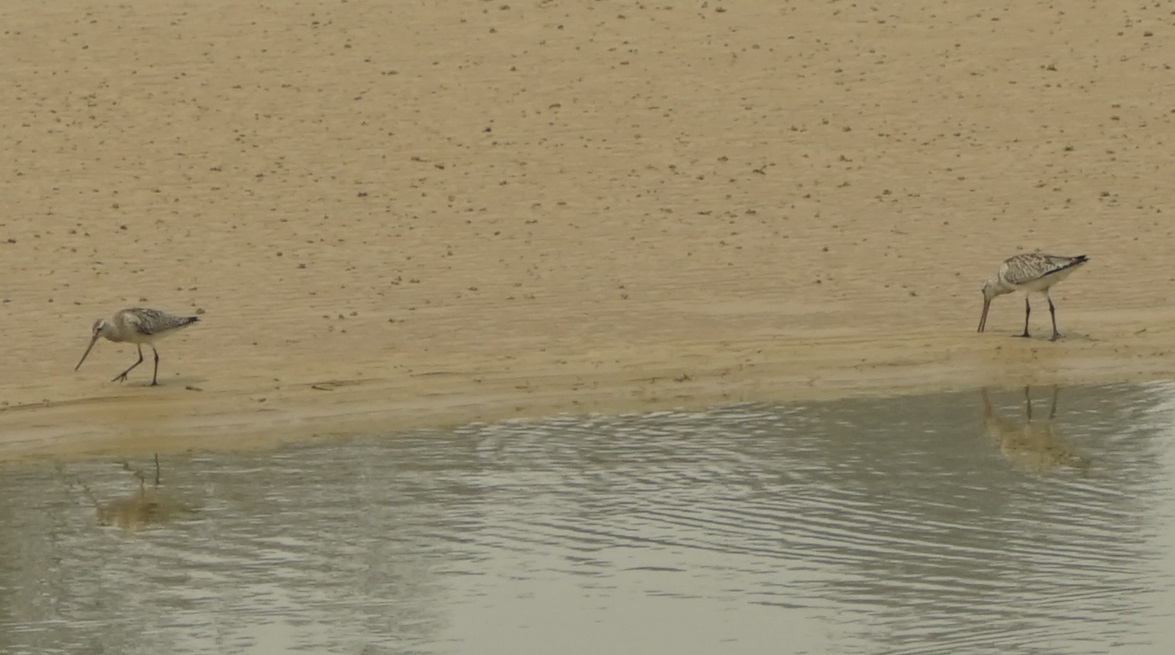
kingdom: Animalia
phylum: Chordata
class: Aves
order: Charadriiformes
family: Scolopacidae
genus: Limosa
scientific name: Limosa lapponica
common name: Bar-tailed godwit
